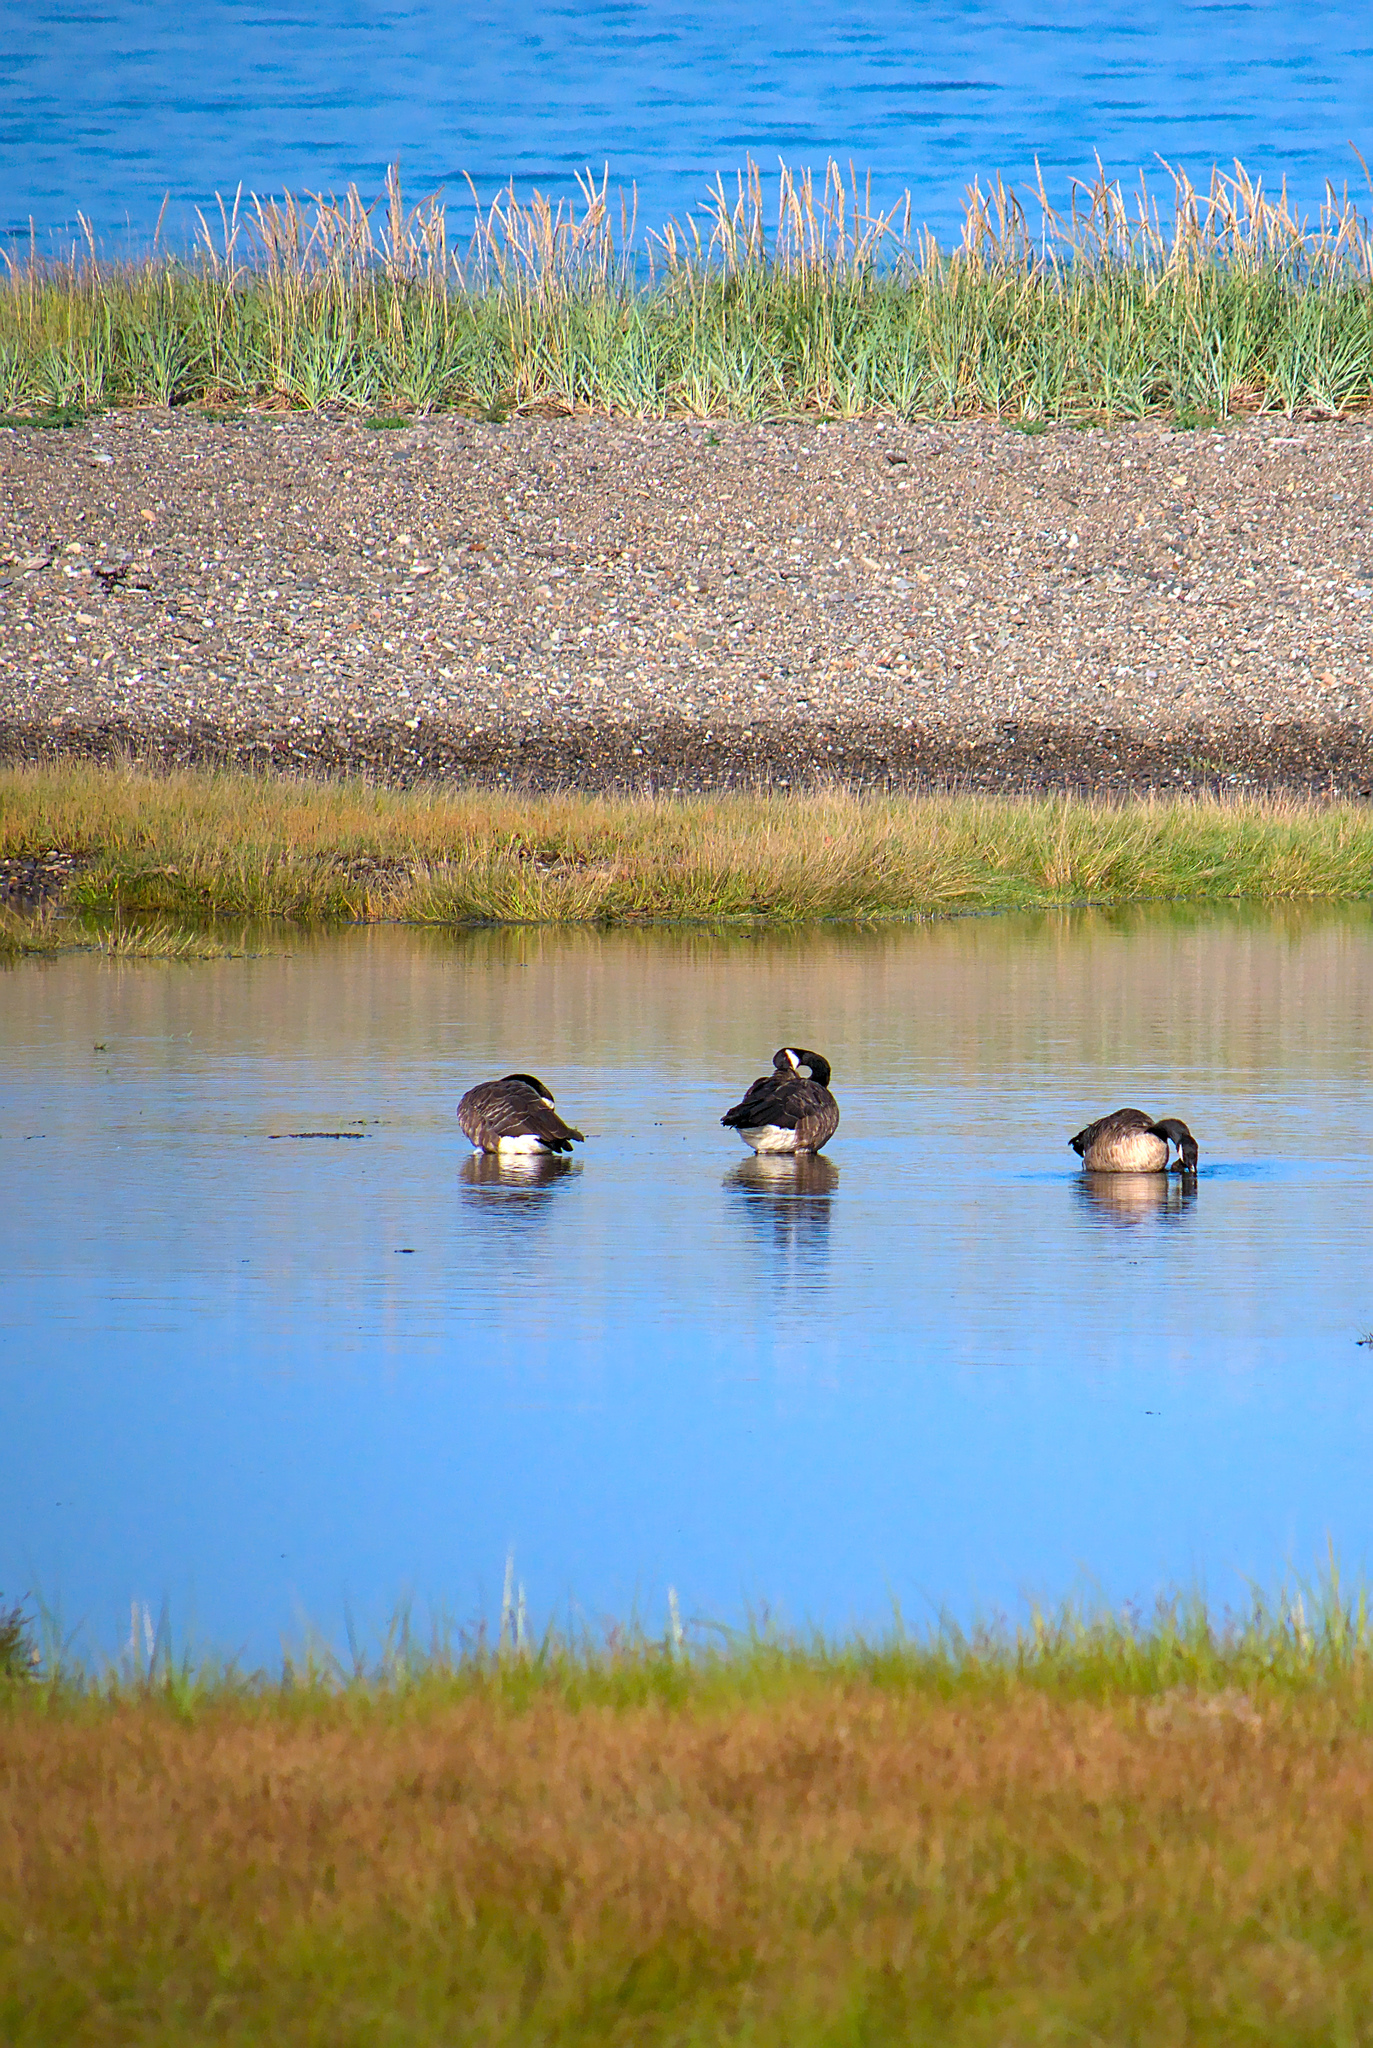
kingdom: Animalia
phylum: Chordata
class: Aves
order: Anseriformes
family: Anatidae
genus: Branta
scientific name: Branta canadensis
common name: Canada goose
